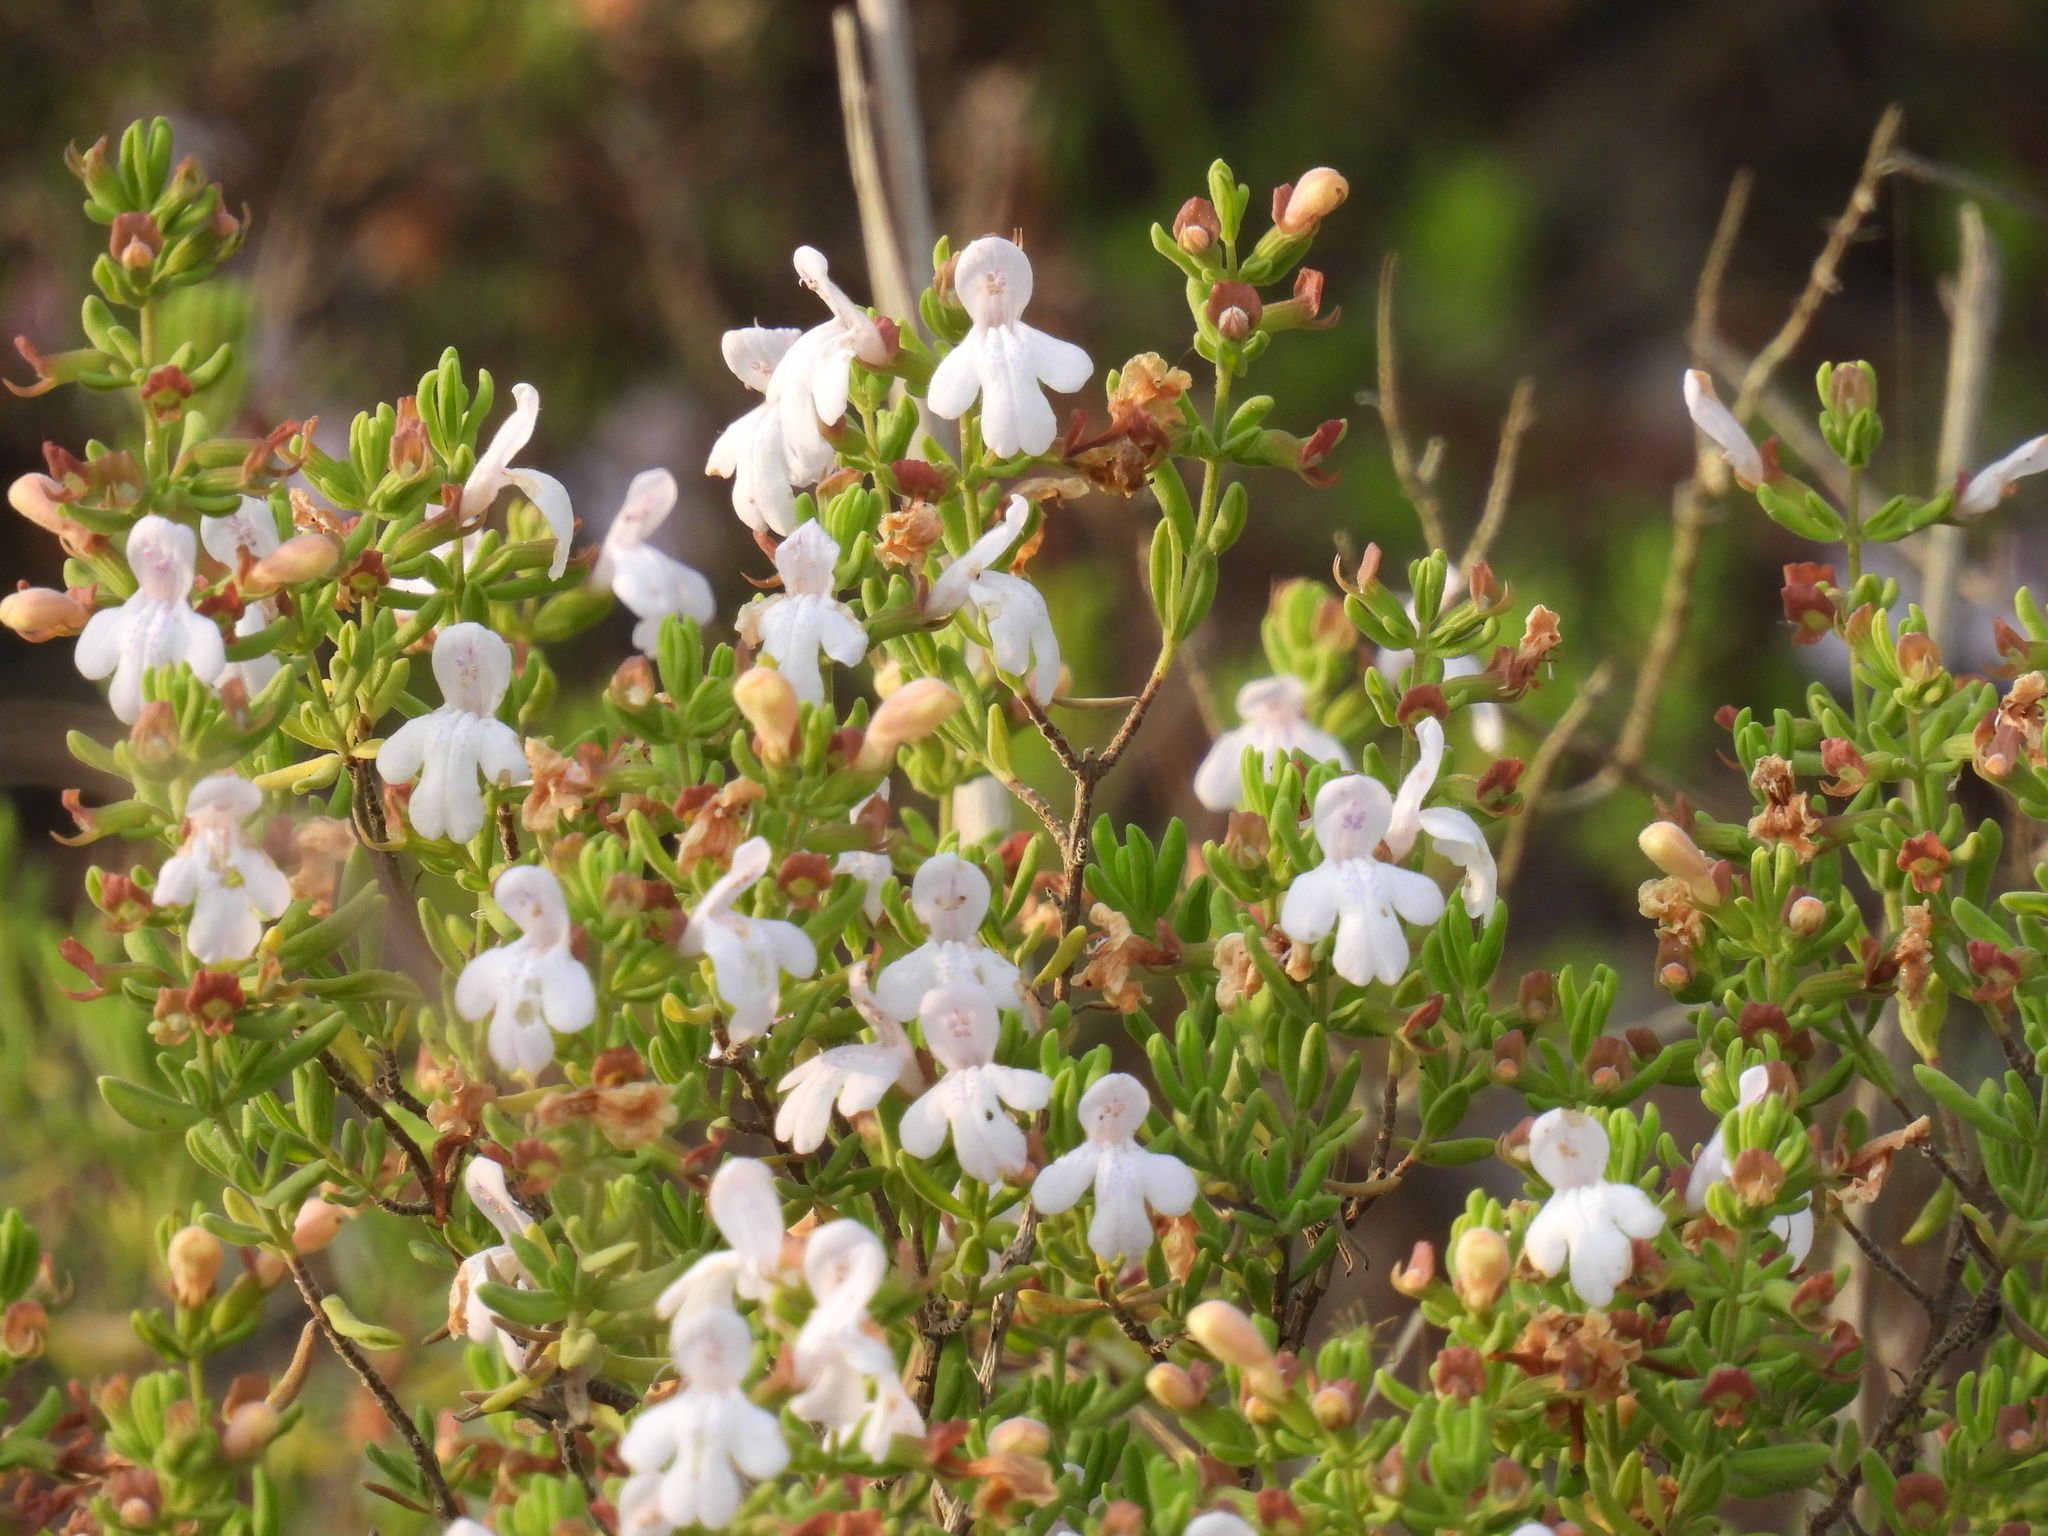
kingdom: Plantae
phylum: Tracheophyta
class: Magnoliopsida
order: Lamiales
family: Lamiaceae
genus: Clinopodium
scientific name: Clinopodium ashei
